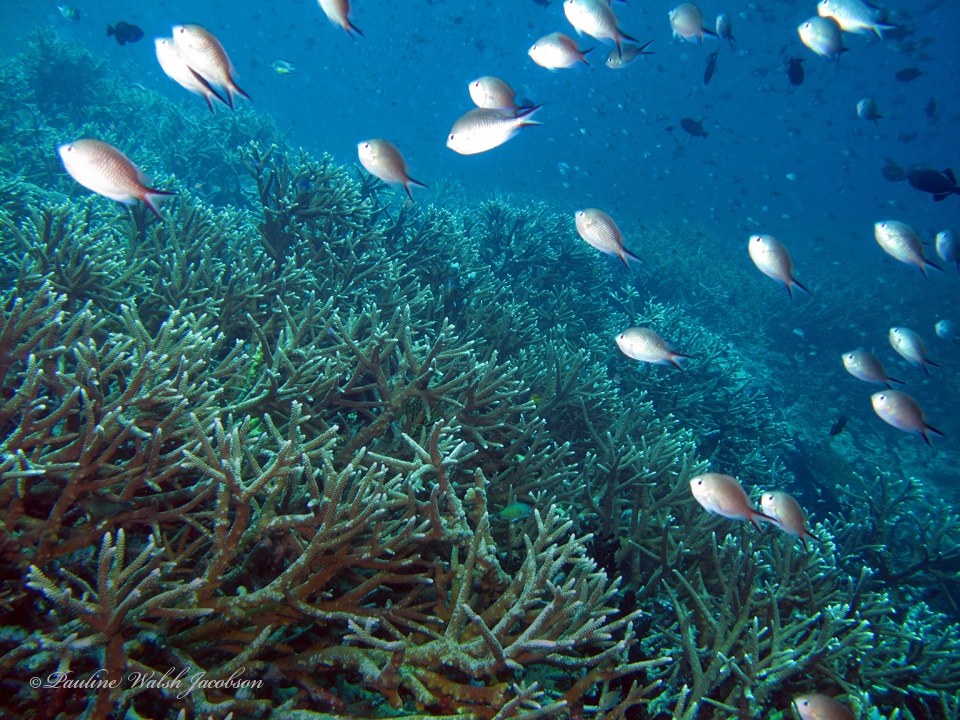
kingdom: Animalia
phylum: Chordata
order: Perciformes
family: Pomacentridae
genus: Chromis
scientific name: Chromis ternatensis
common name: Ternate chromis
